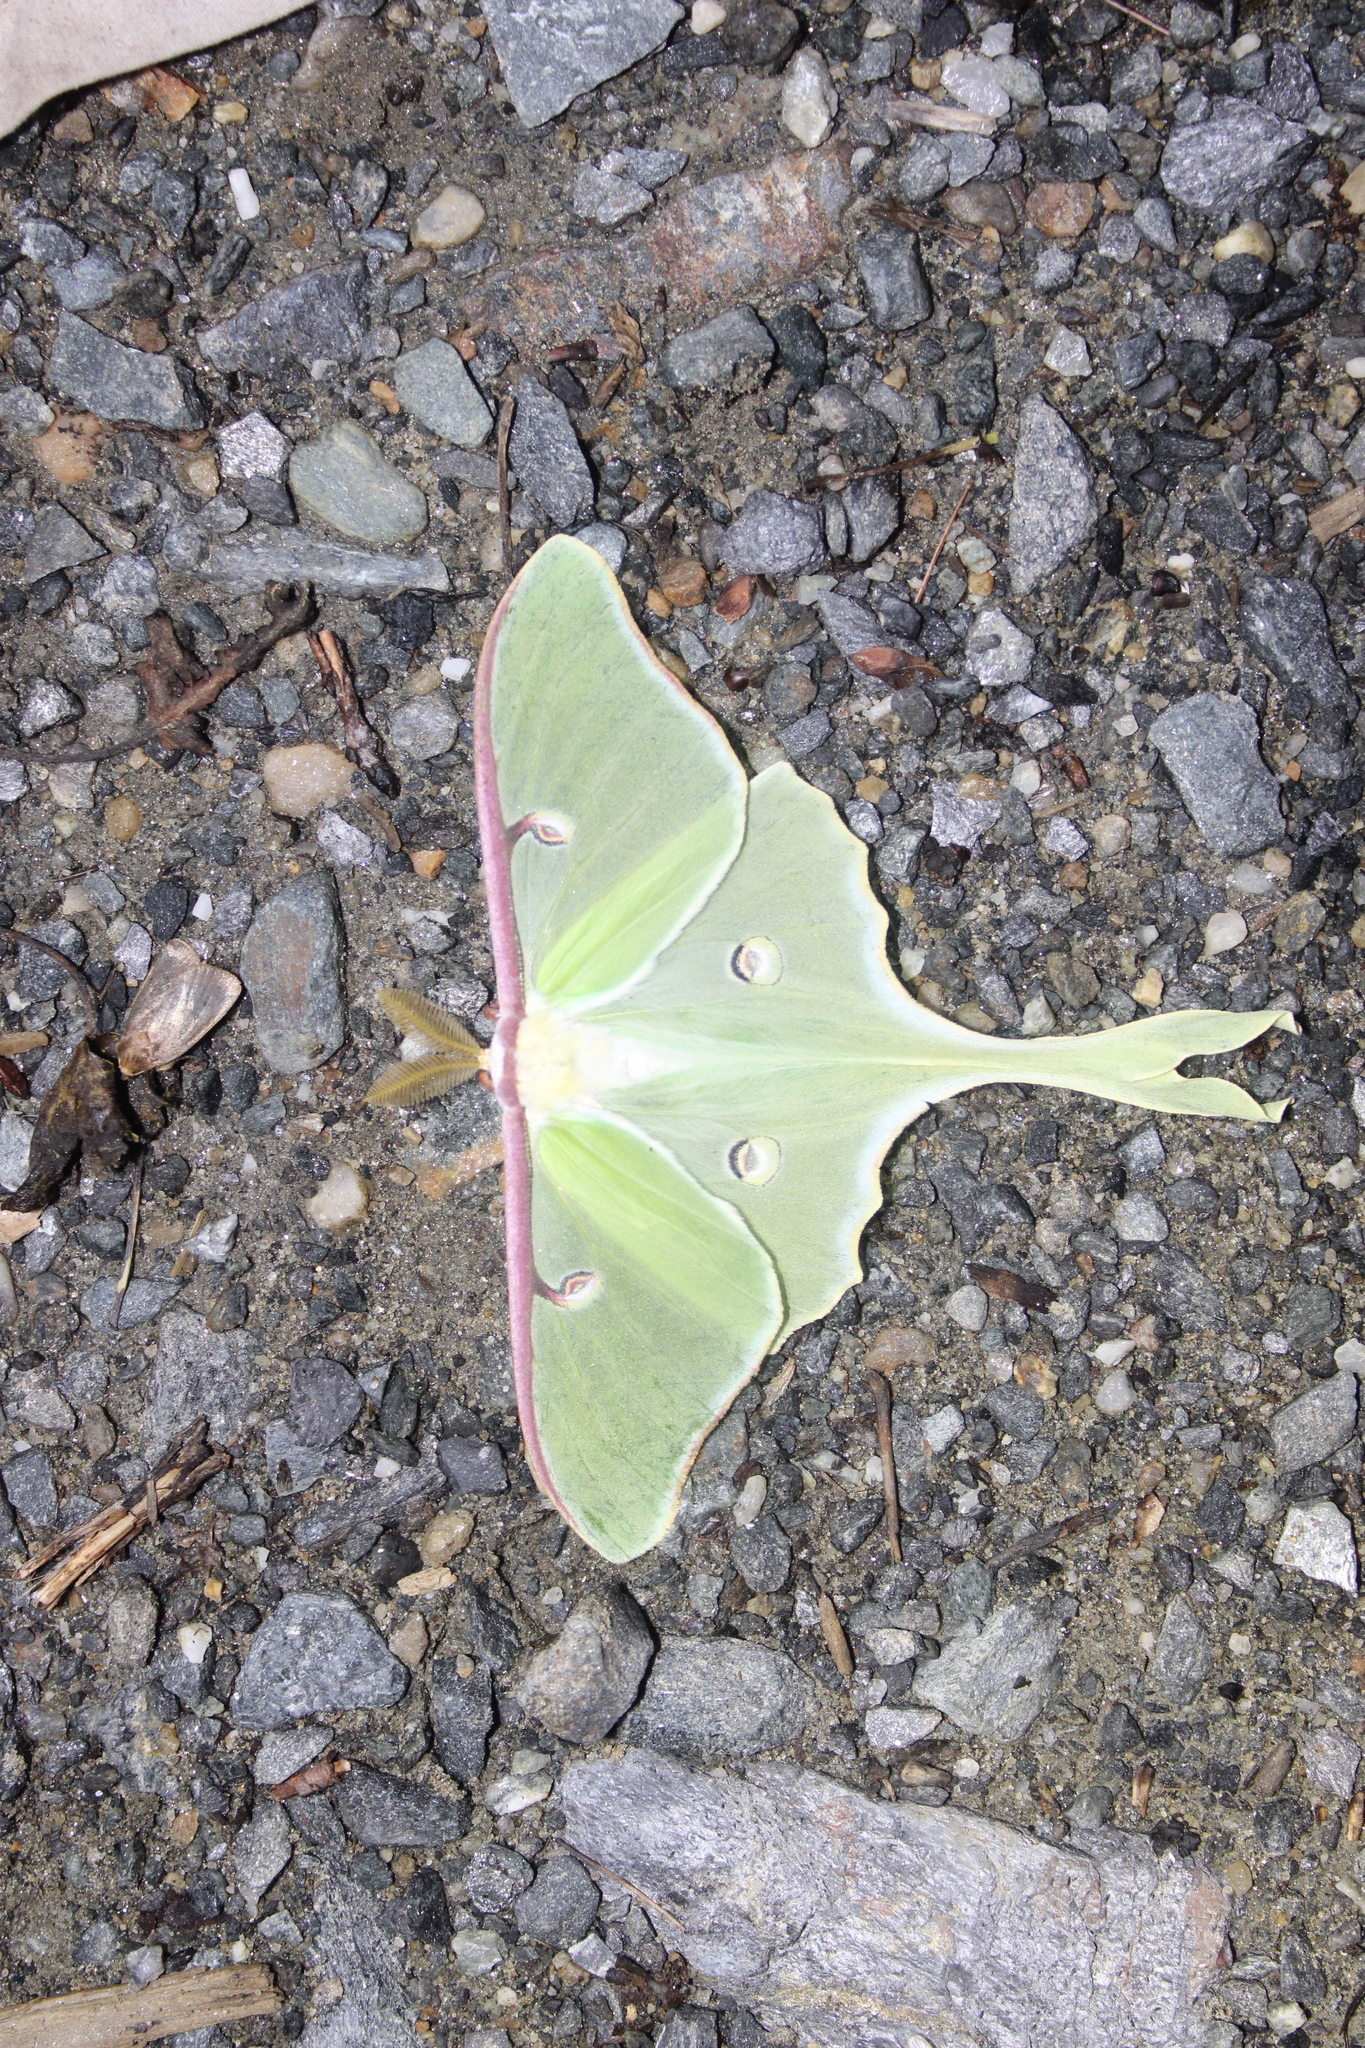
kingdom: Animalia
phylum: Arthropoda
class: Insecta
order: Lepidoptera
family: Saturniidae
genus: Actias
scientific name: Actias luna
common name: Luna moth
